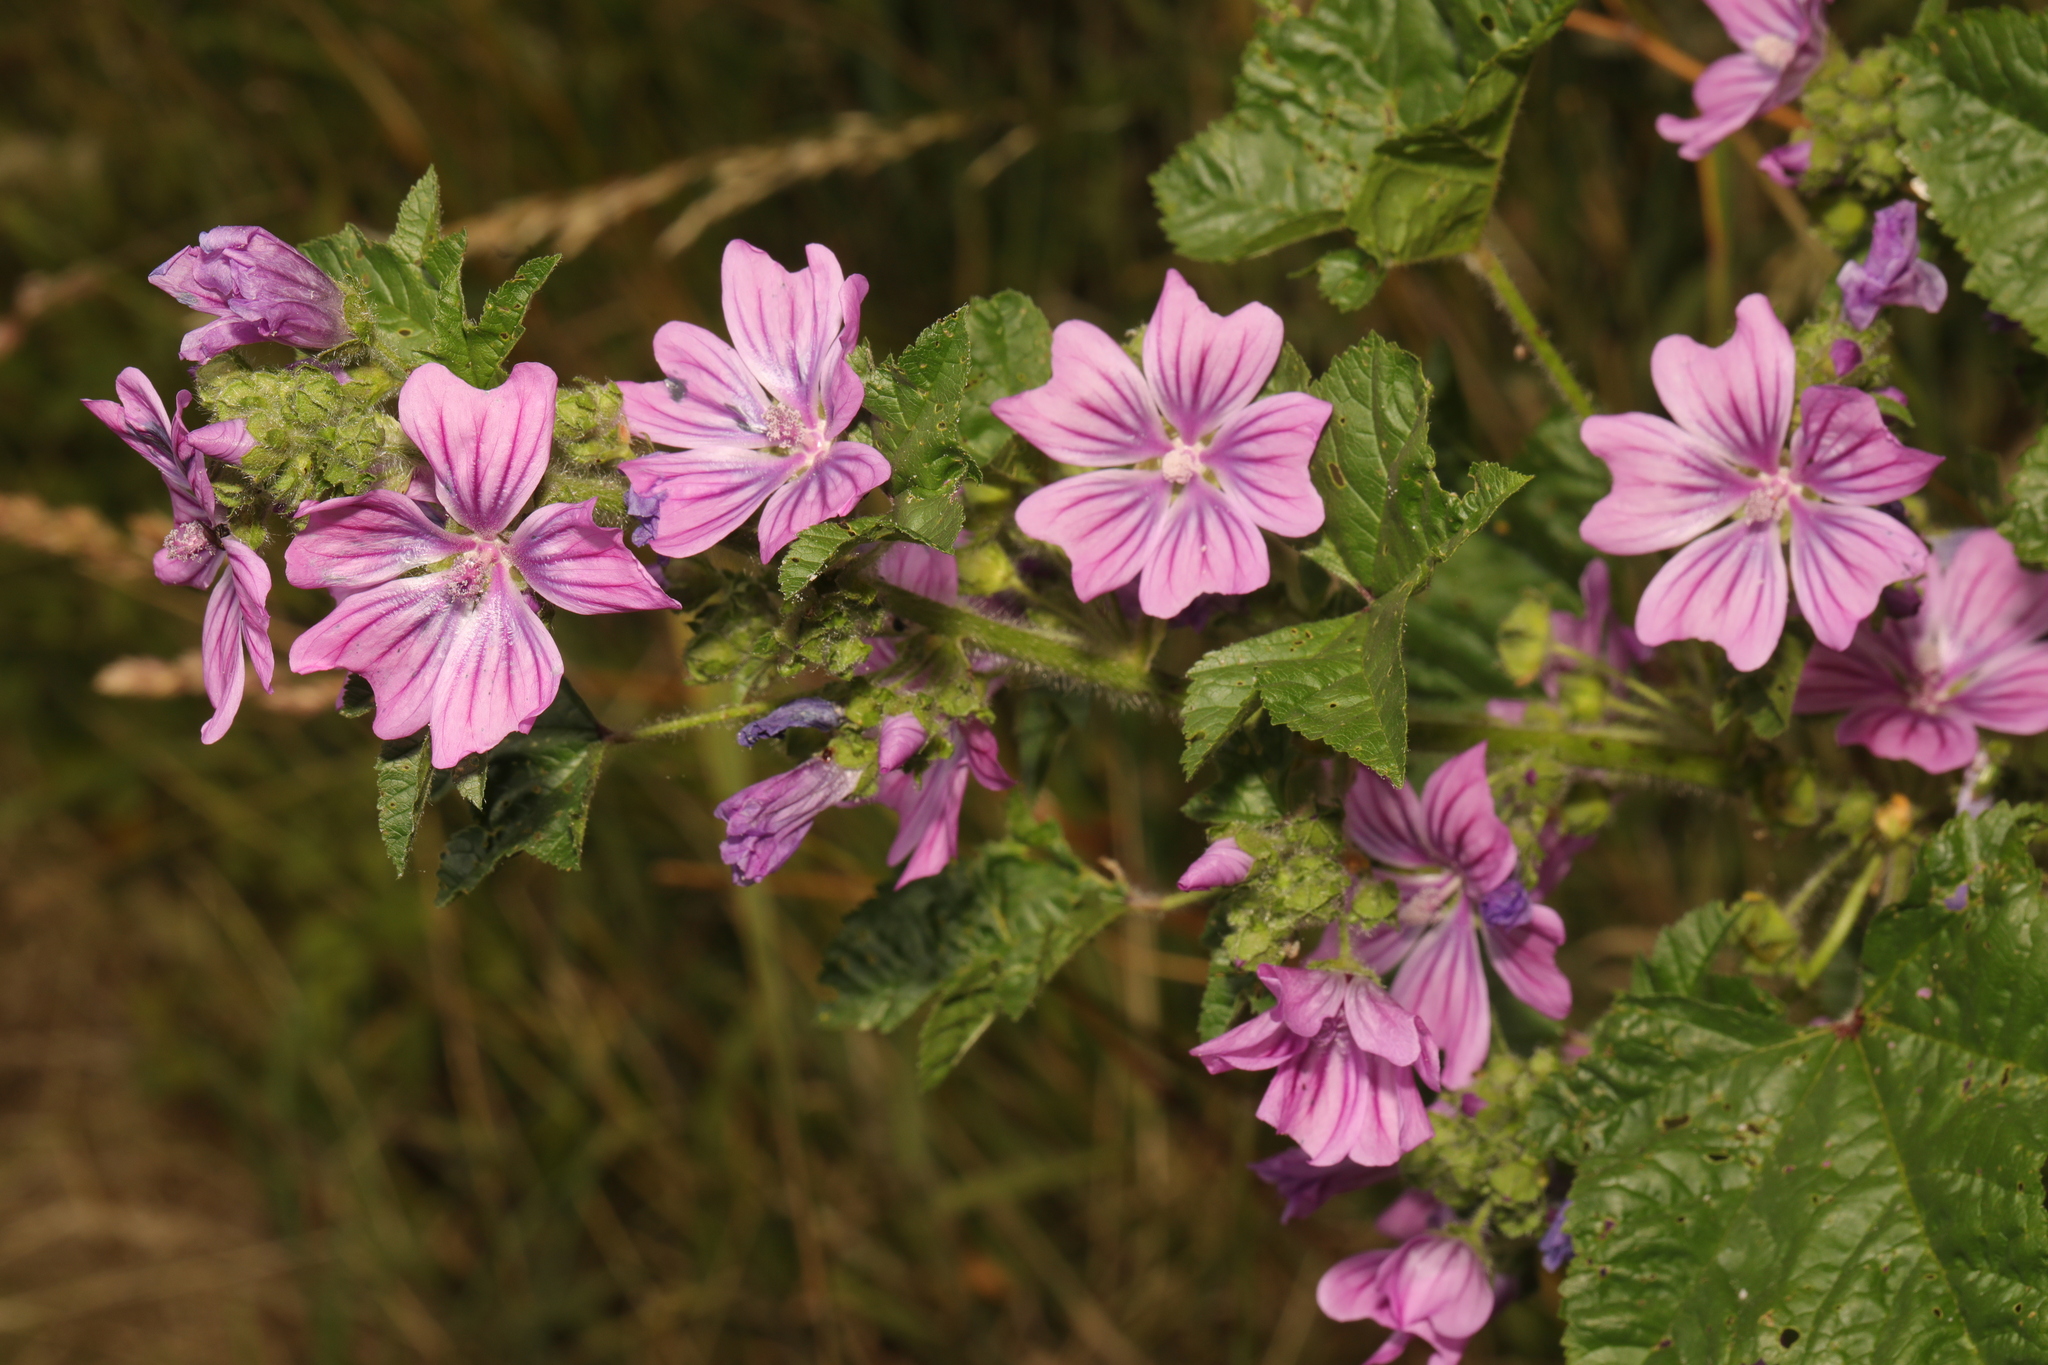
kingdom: Plantae
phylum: Tracheophyta
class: Magnoliopsida
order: Malvales
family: Malvaceae
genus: Malva
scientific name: Malva sylvestris
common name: Common mallow
